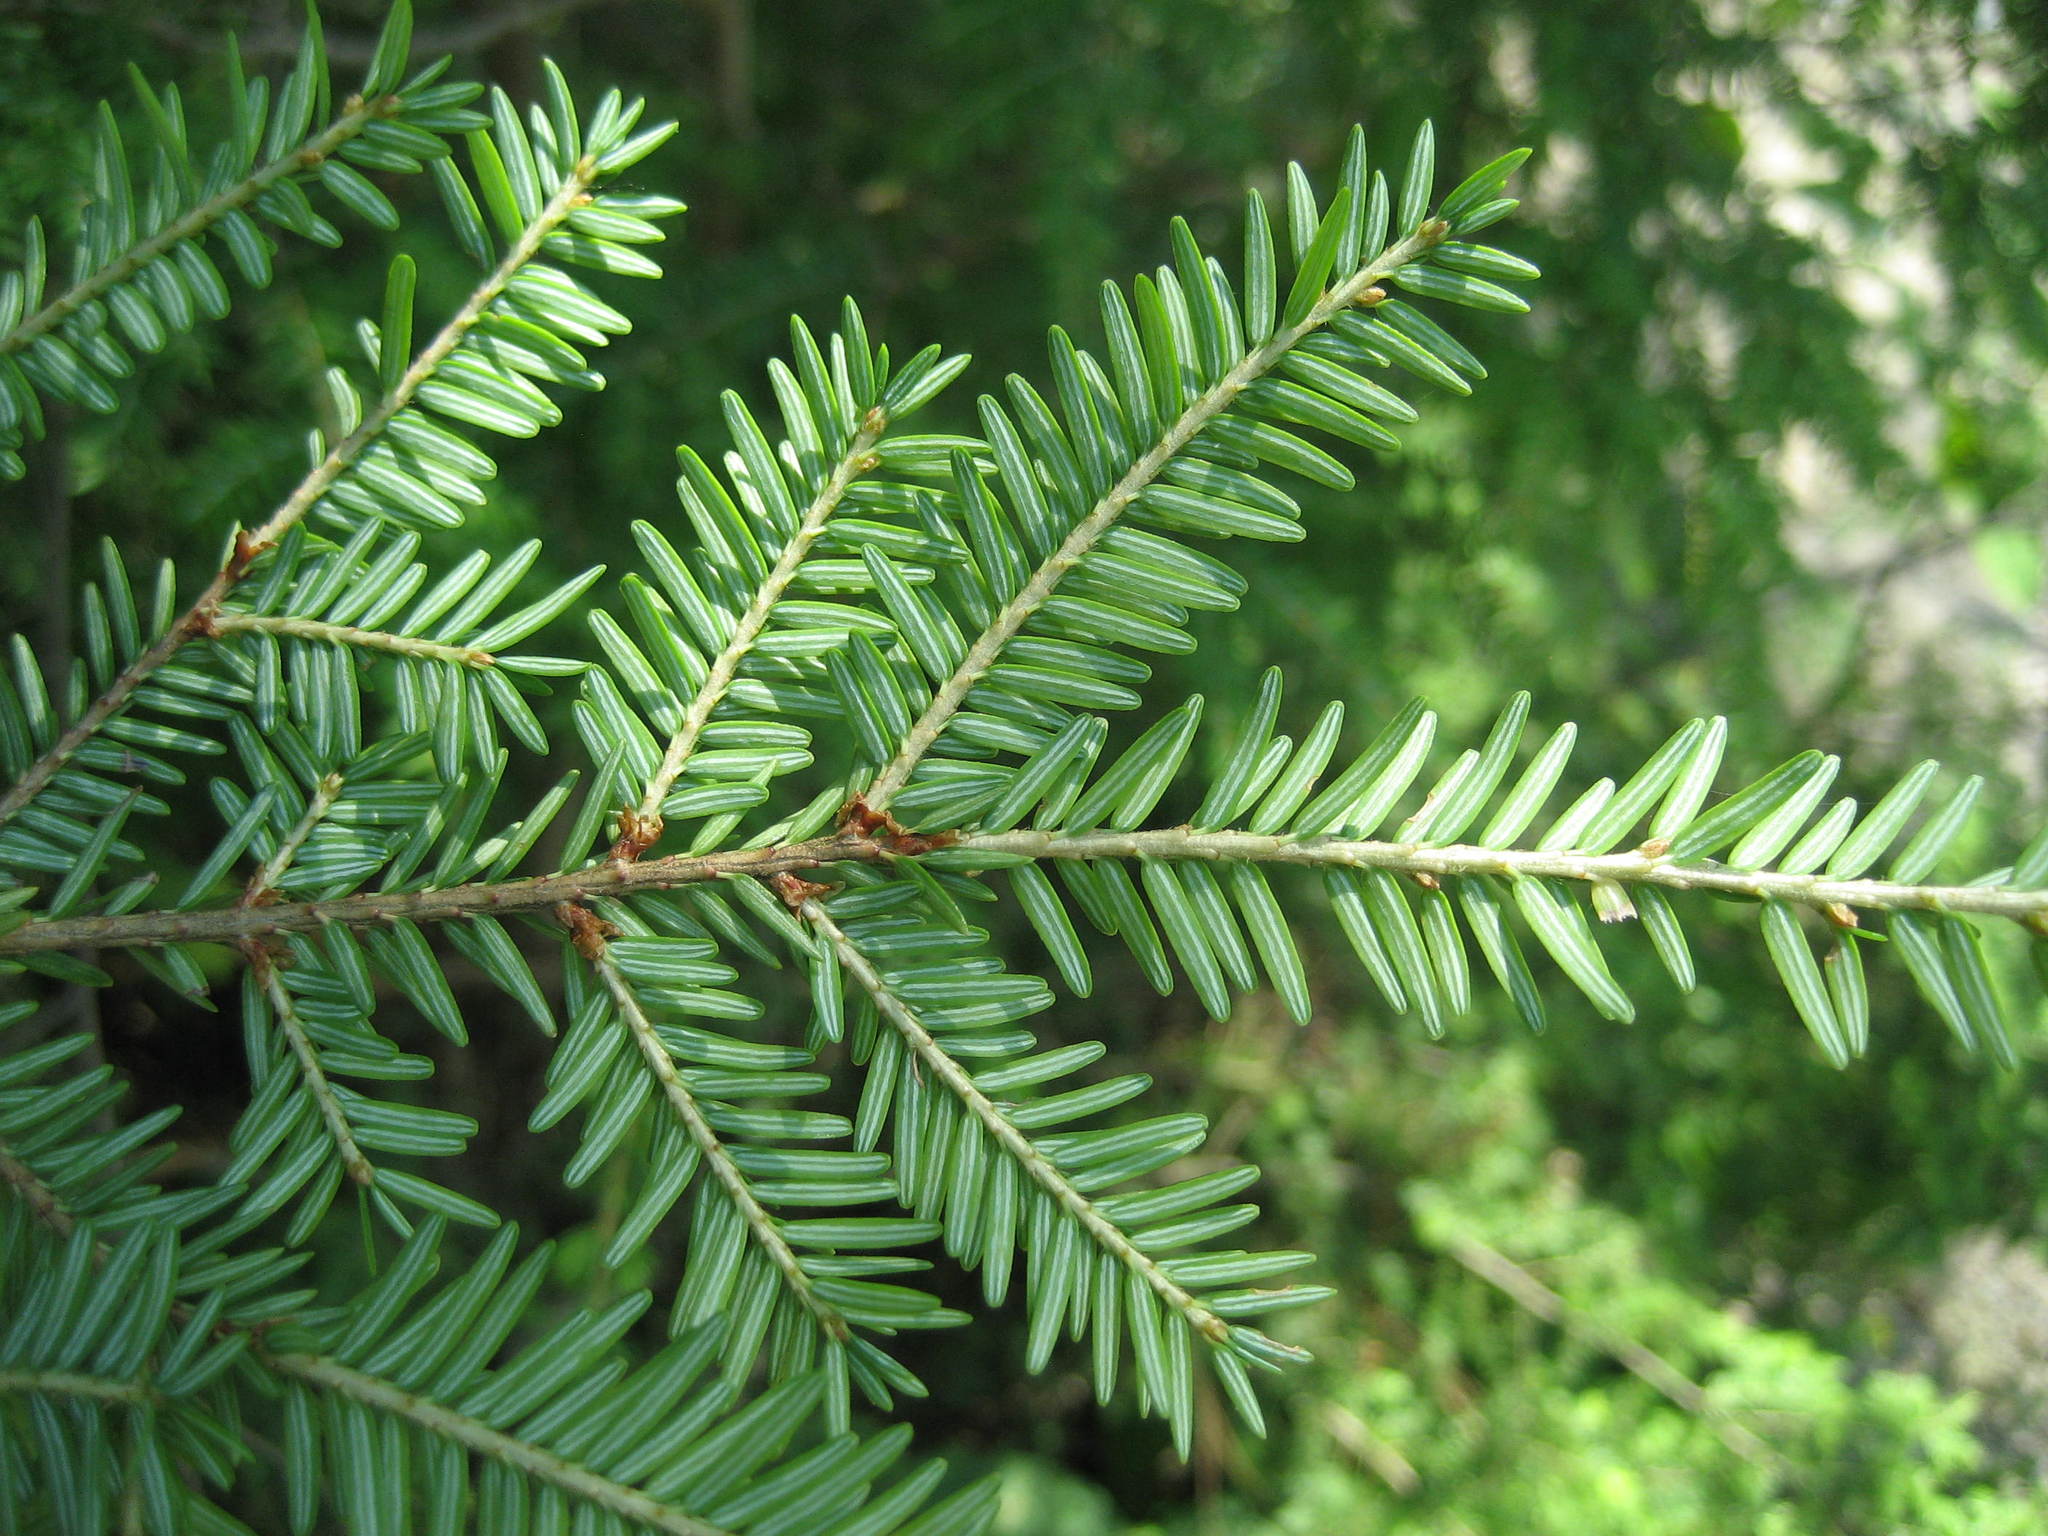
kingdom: Plantae
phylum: Tracheophyta
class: Pinopsida
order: Pinales
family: Pinaceae
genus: Tsuga
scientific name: Tsuga canadensis
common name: Eastern hemlock
